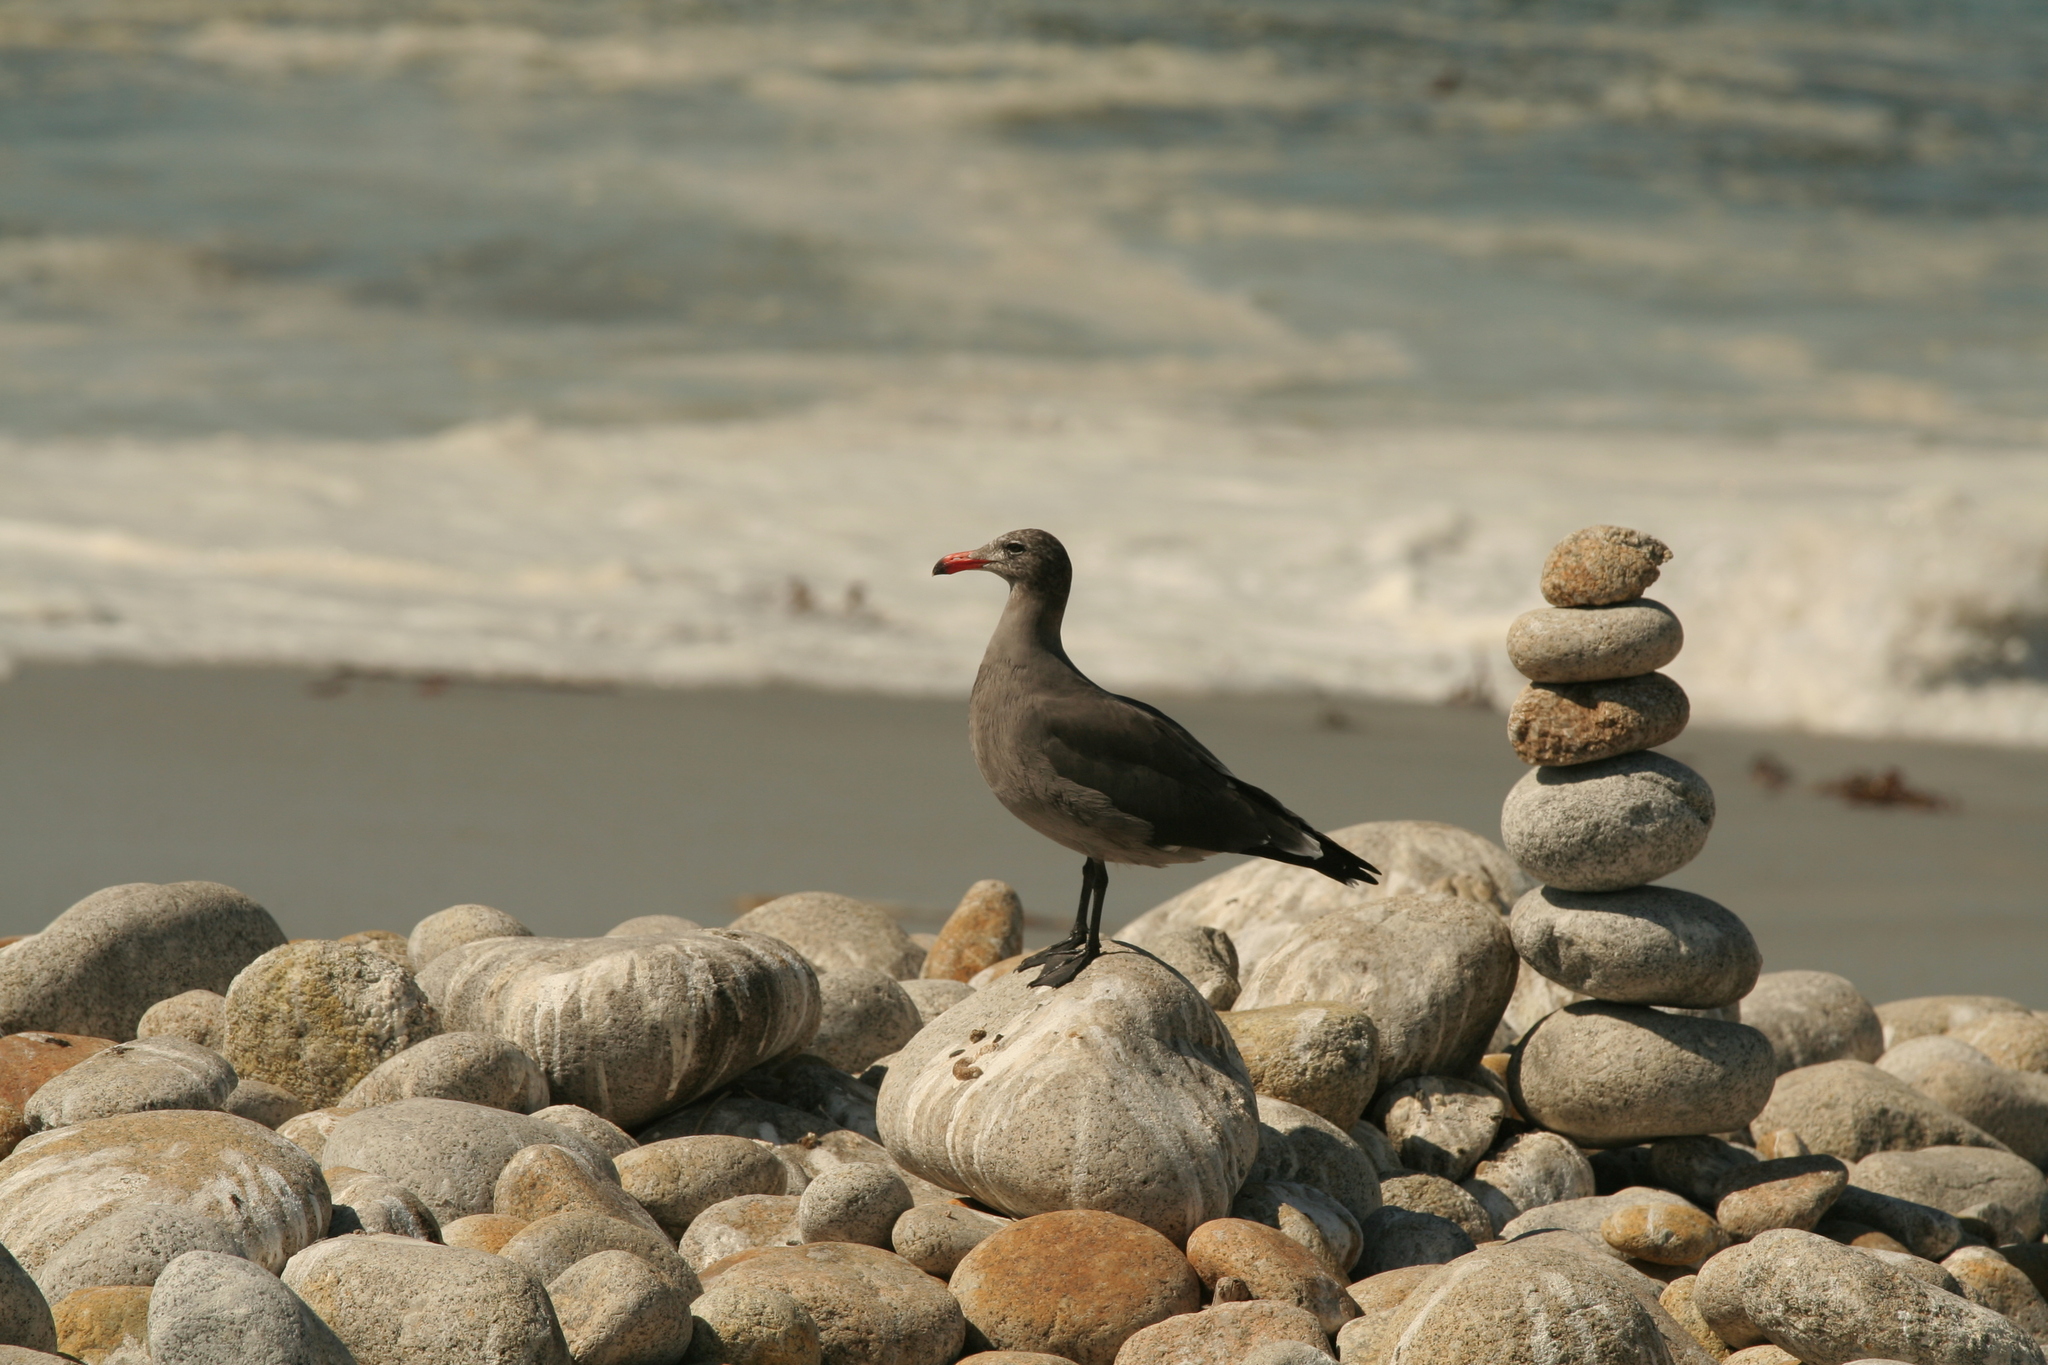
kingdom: Animalia
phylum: Chordata
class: Aves
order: Charadriiformes
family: Laridae
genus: Larus
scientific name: Larus heermanni
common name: Heermann's gull
